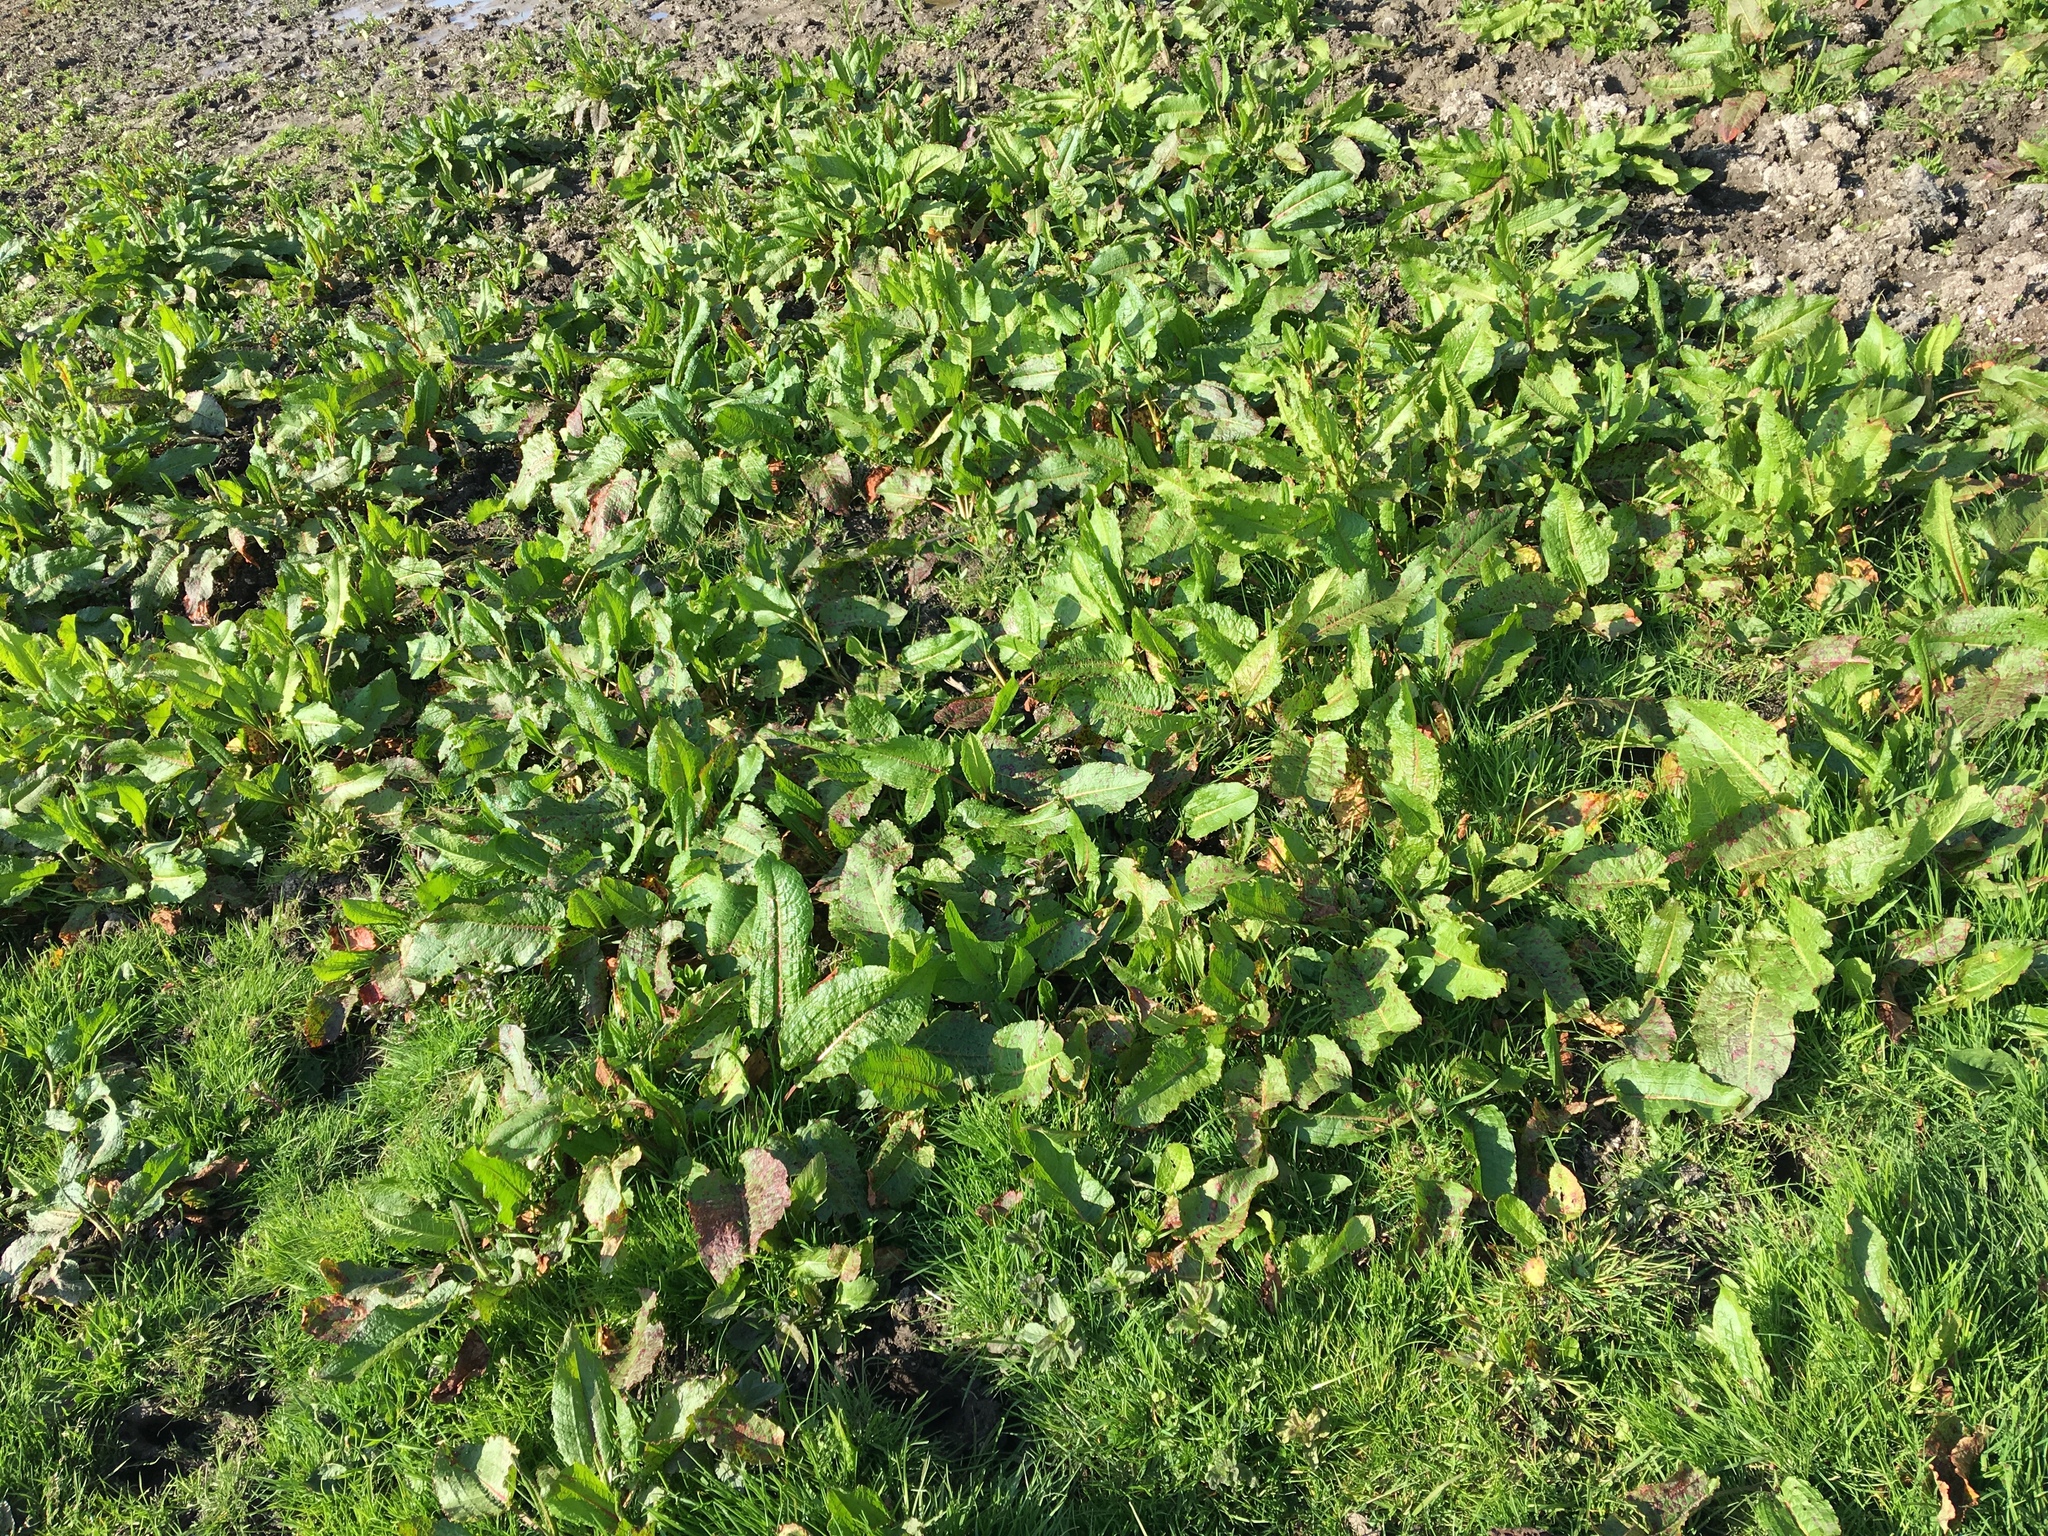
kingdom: Plantae
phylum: Tracheophyta
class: Magnoliopsida
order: Caryophyllales
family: Polygonaceae
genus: Rumex
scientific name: Rumex obtusifolius
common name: Bitter dock
